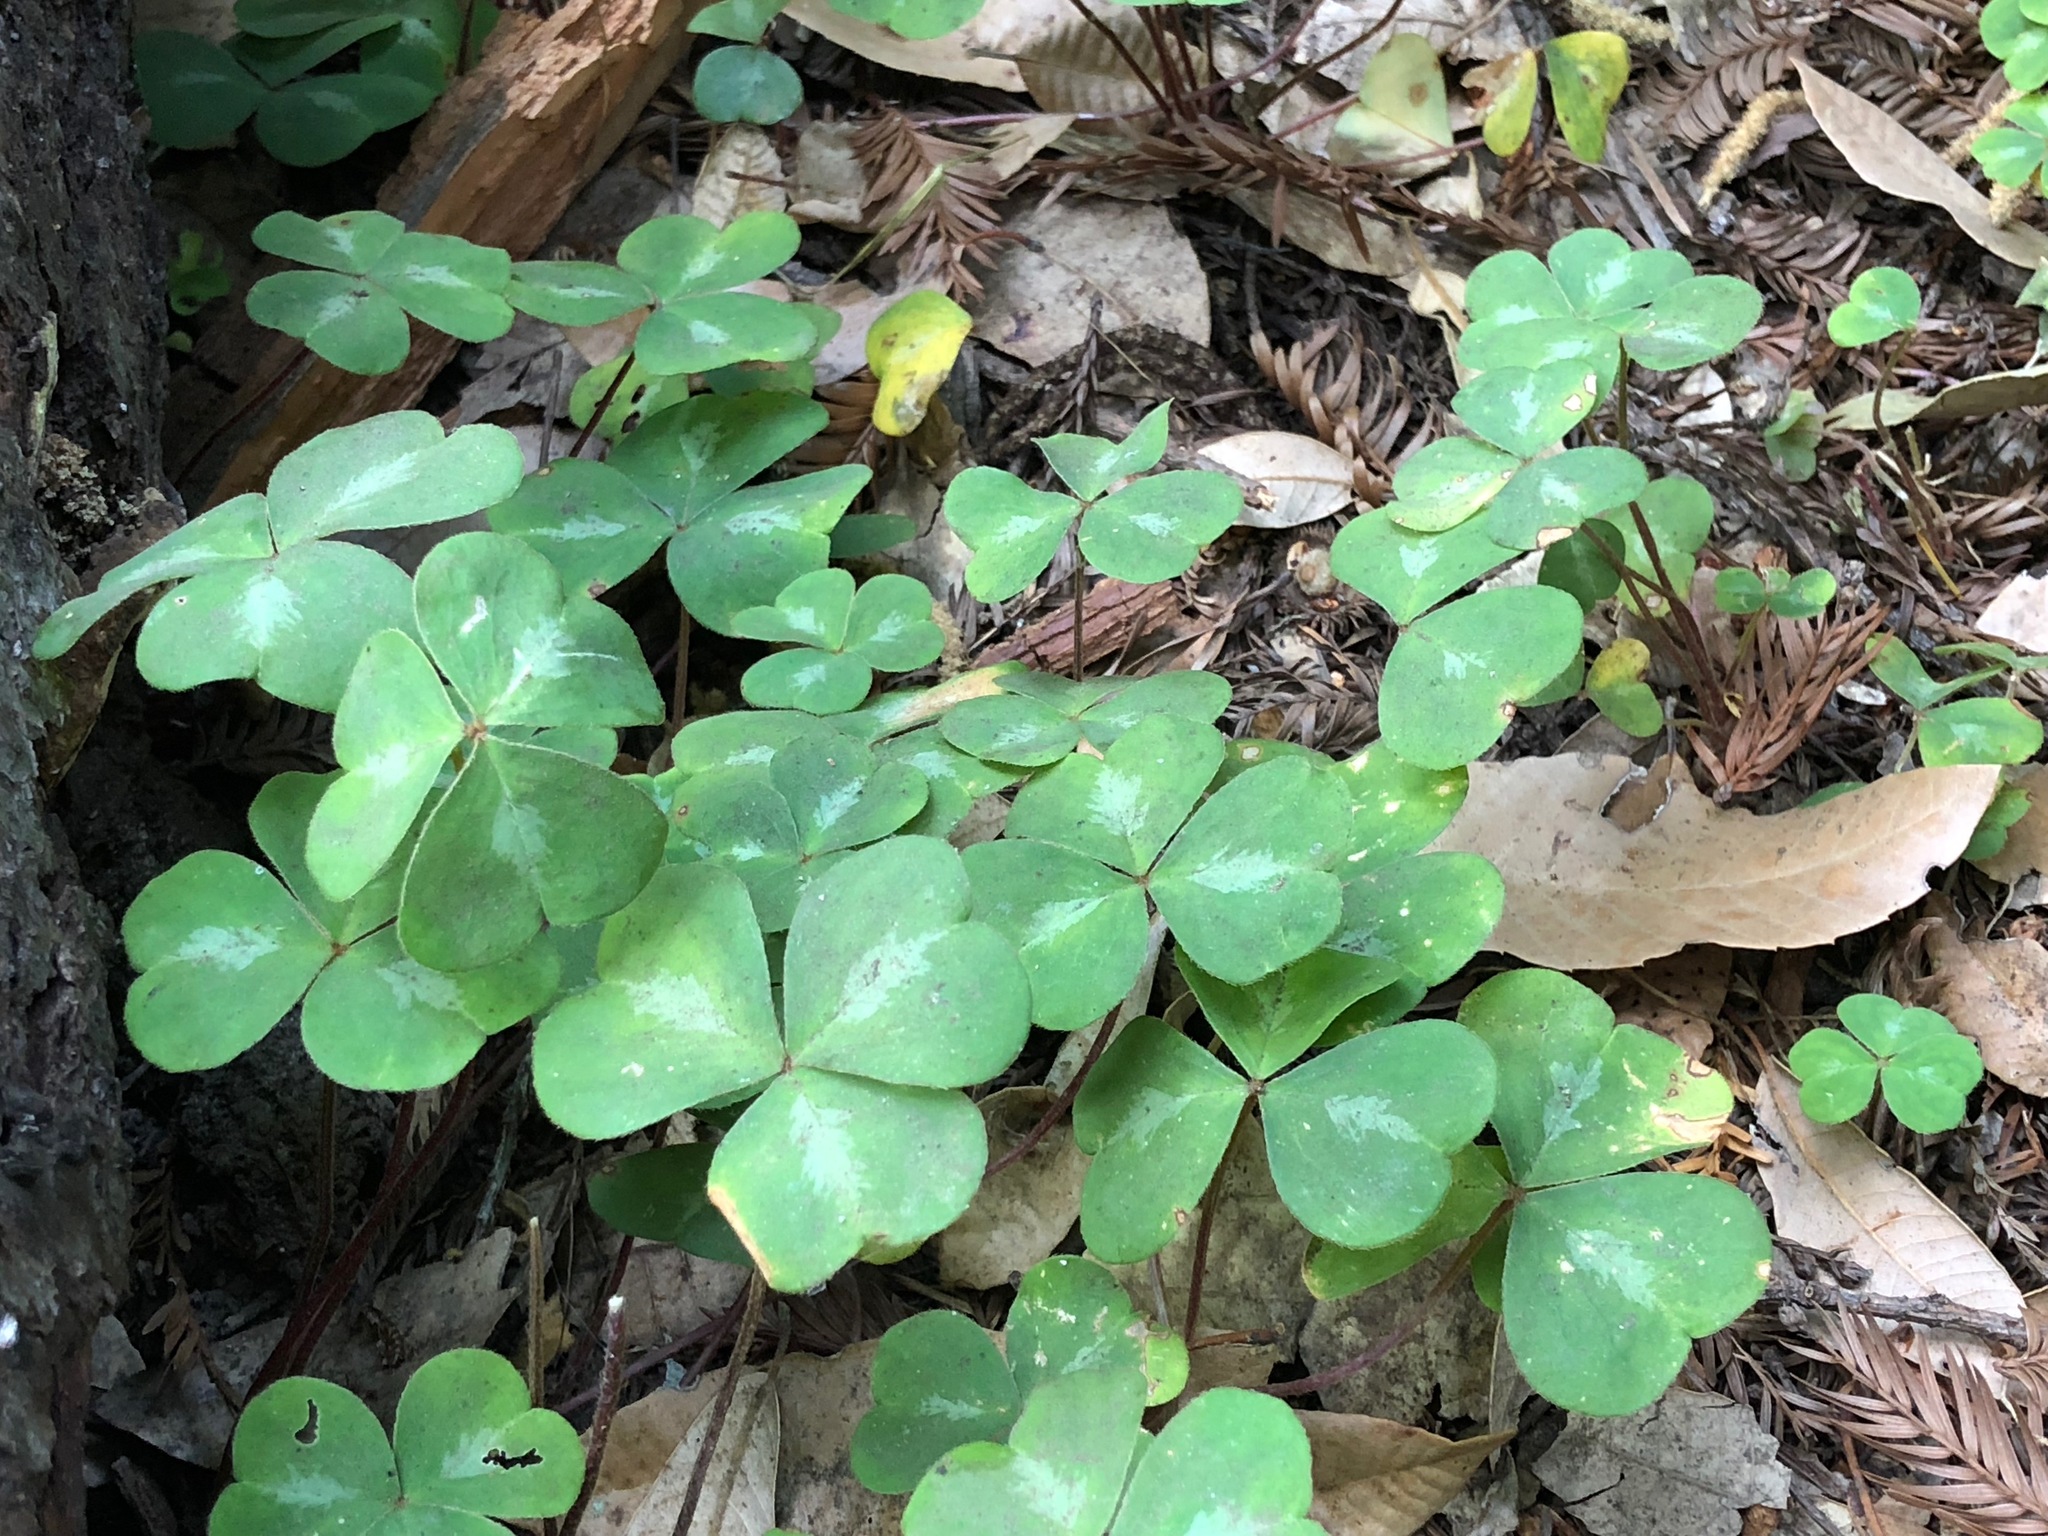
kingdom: Plantae
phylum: Tracheophyta
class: Magnoliopsida
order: Oxalidales
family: Oxalidaceae
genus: Oxalis
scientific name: Oxalis oregana
